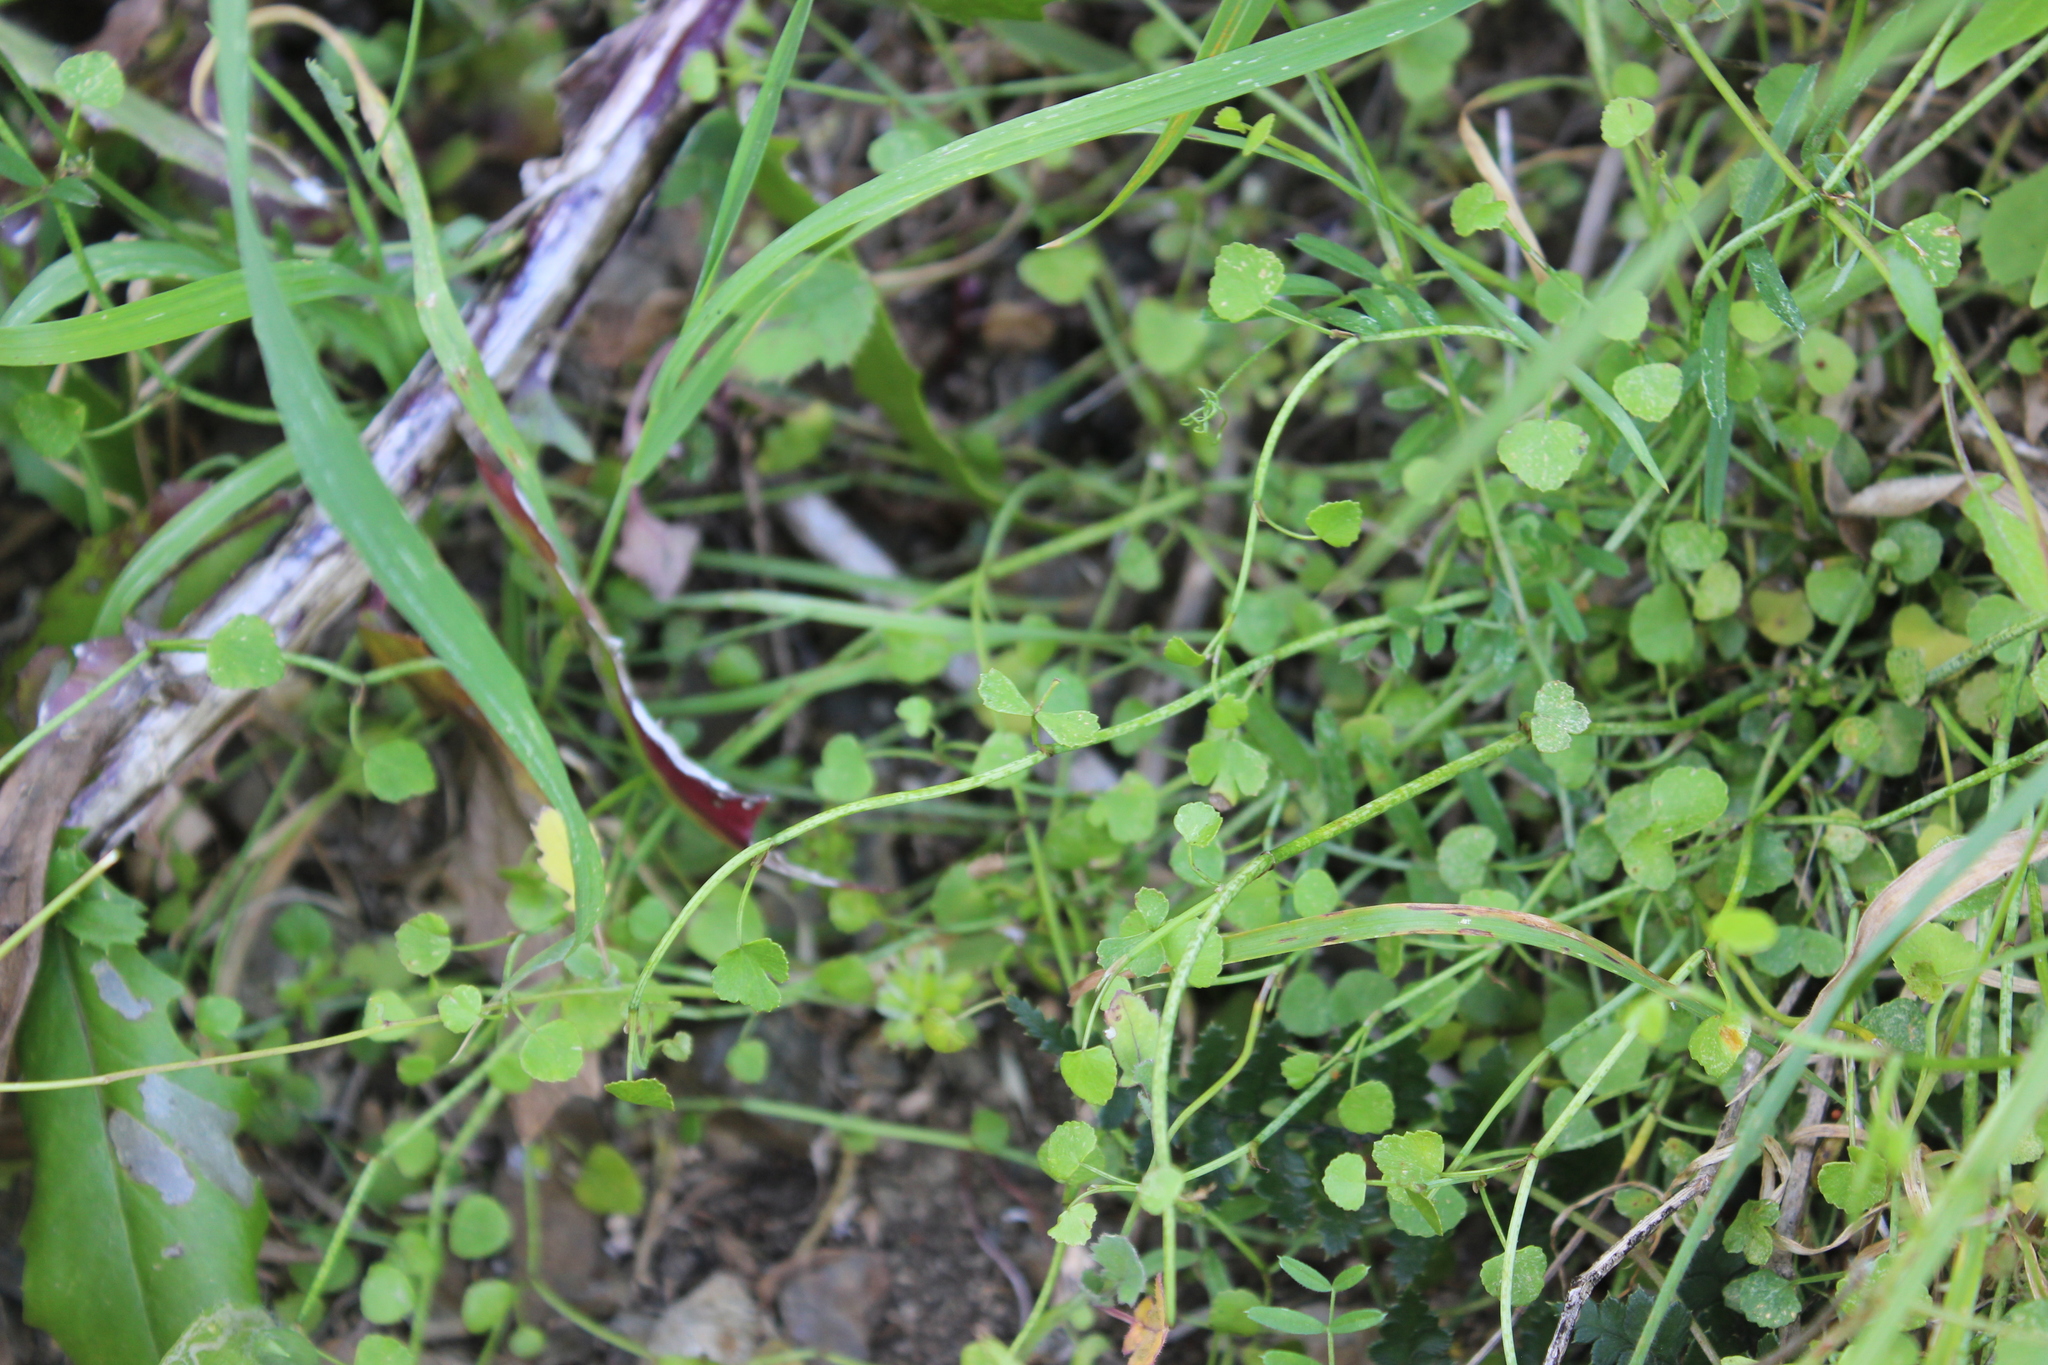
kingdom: Plantae
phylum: Tracheophyta
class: Magnoliopsida
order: Apiales
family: Apiaceae
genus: Scandia
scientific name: Scandia geniculata
